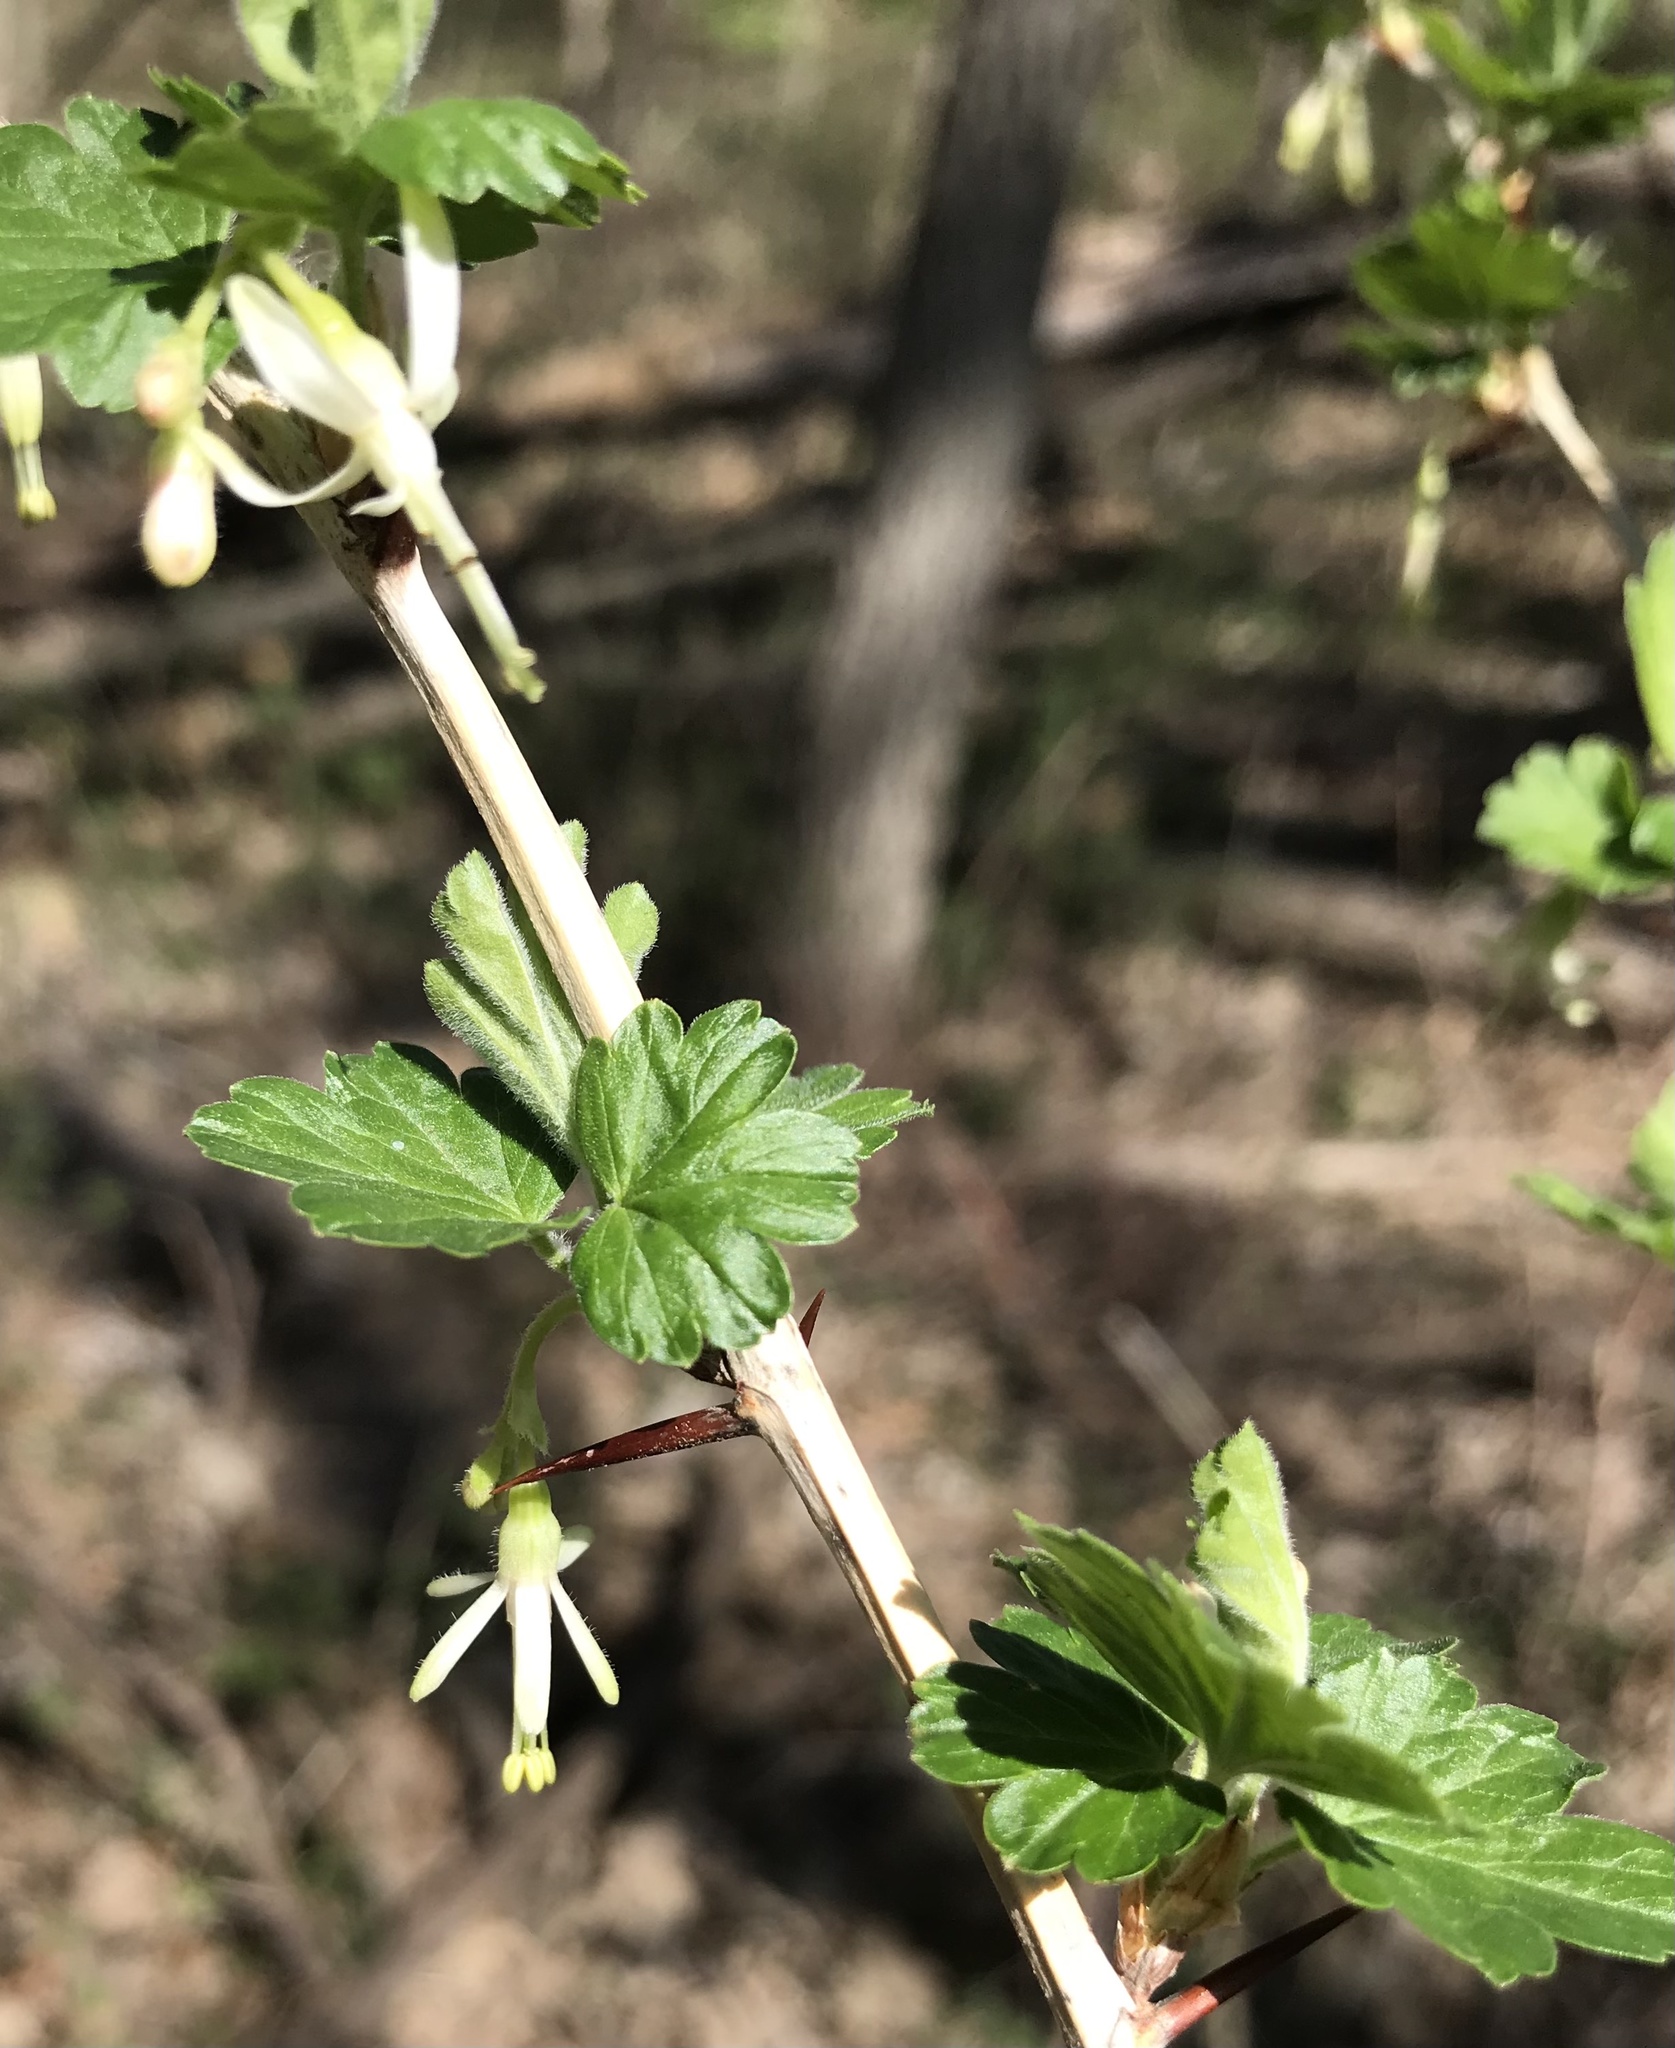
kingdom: Plantae
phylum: Tracheophyta
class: Magnoliopsida
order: Saxifragales
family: Grossulariaceae
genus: Ribes
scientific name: Ribes missouriense
